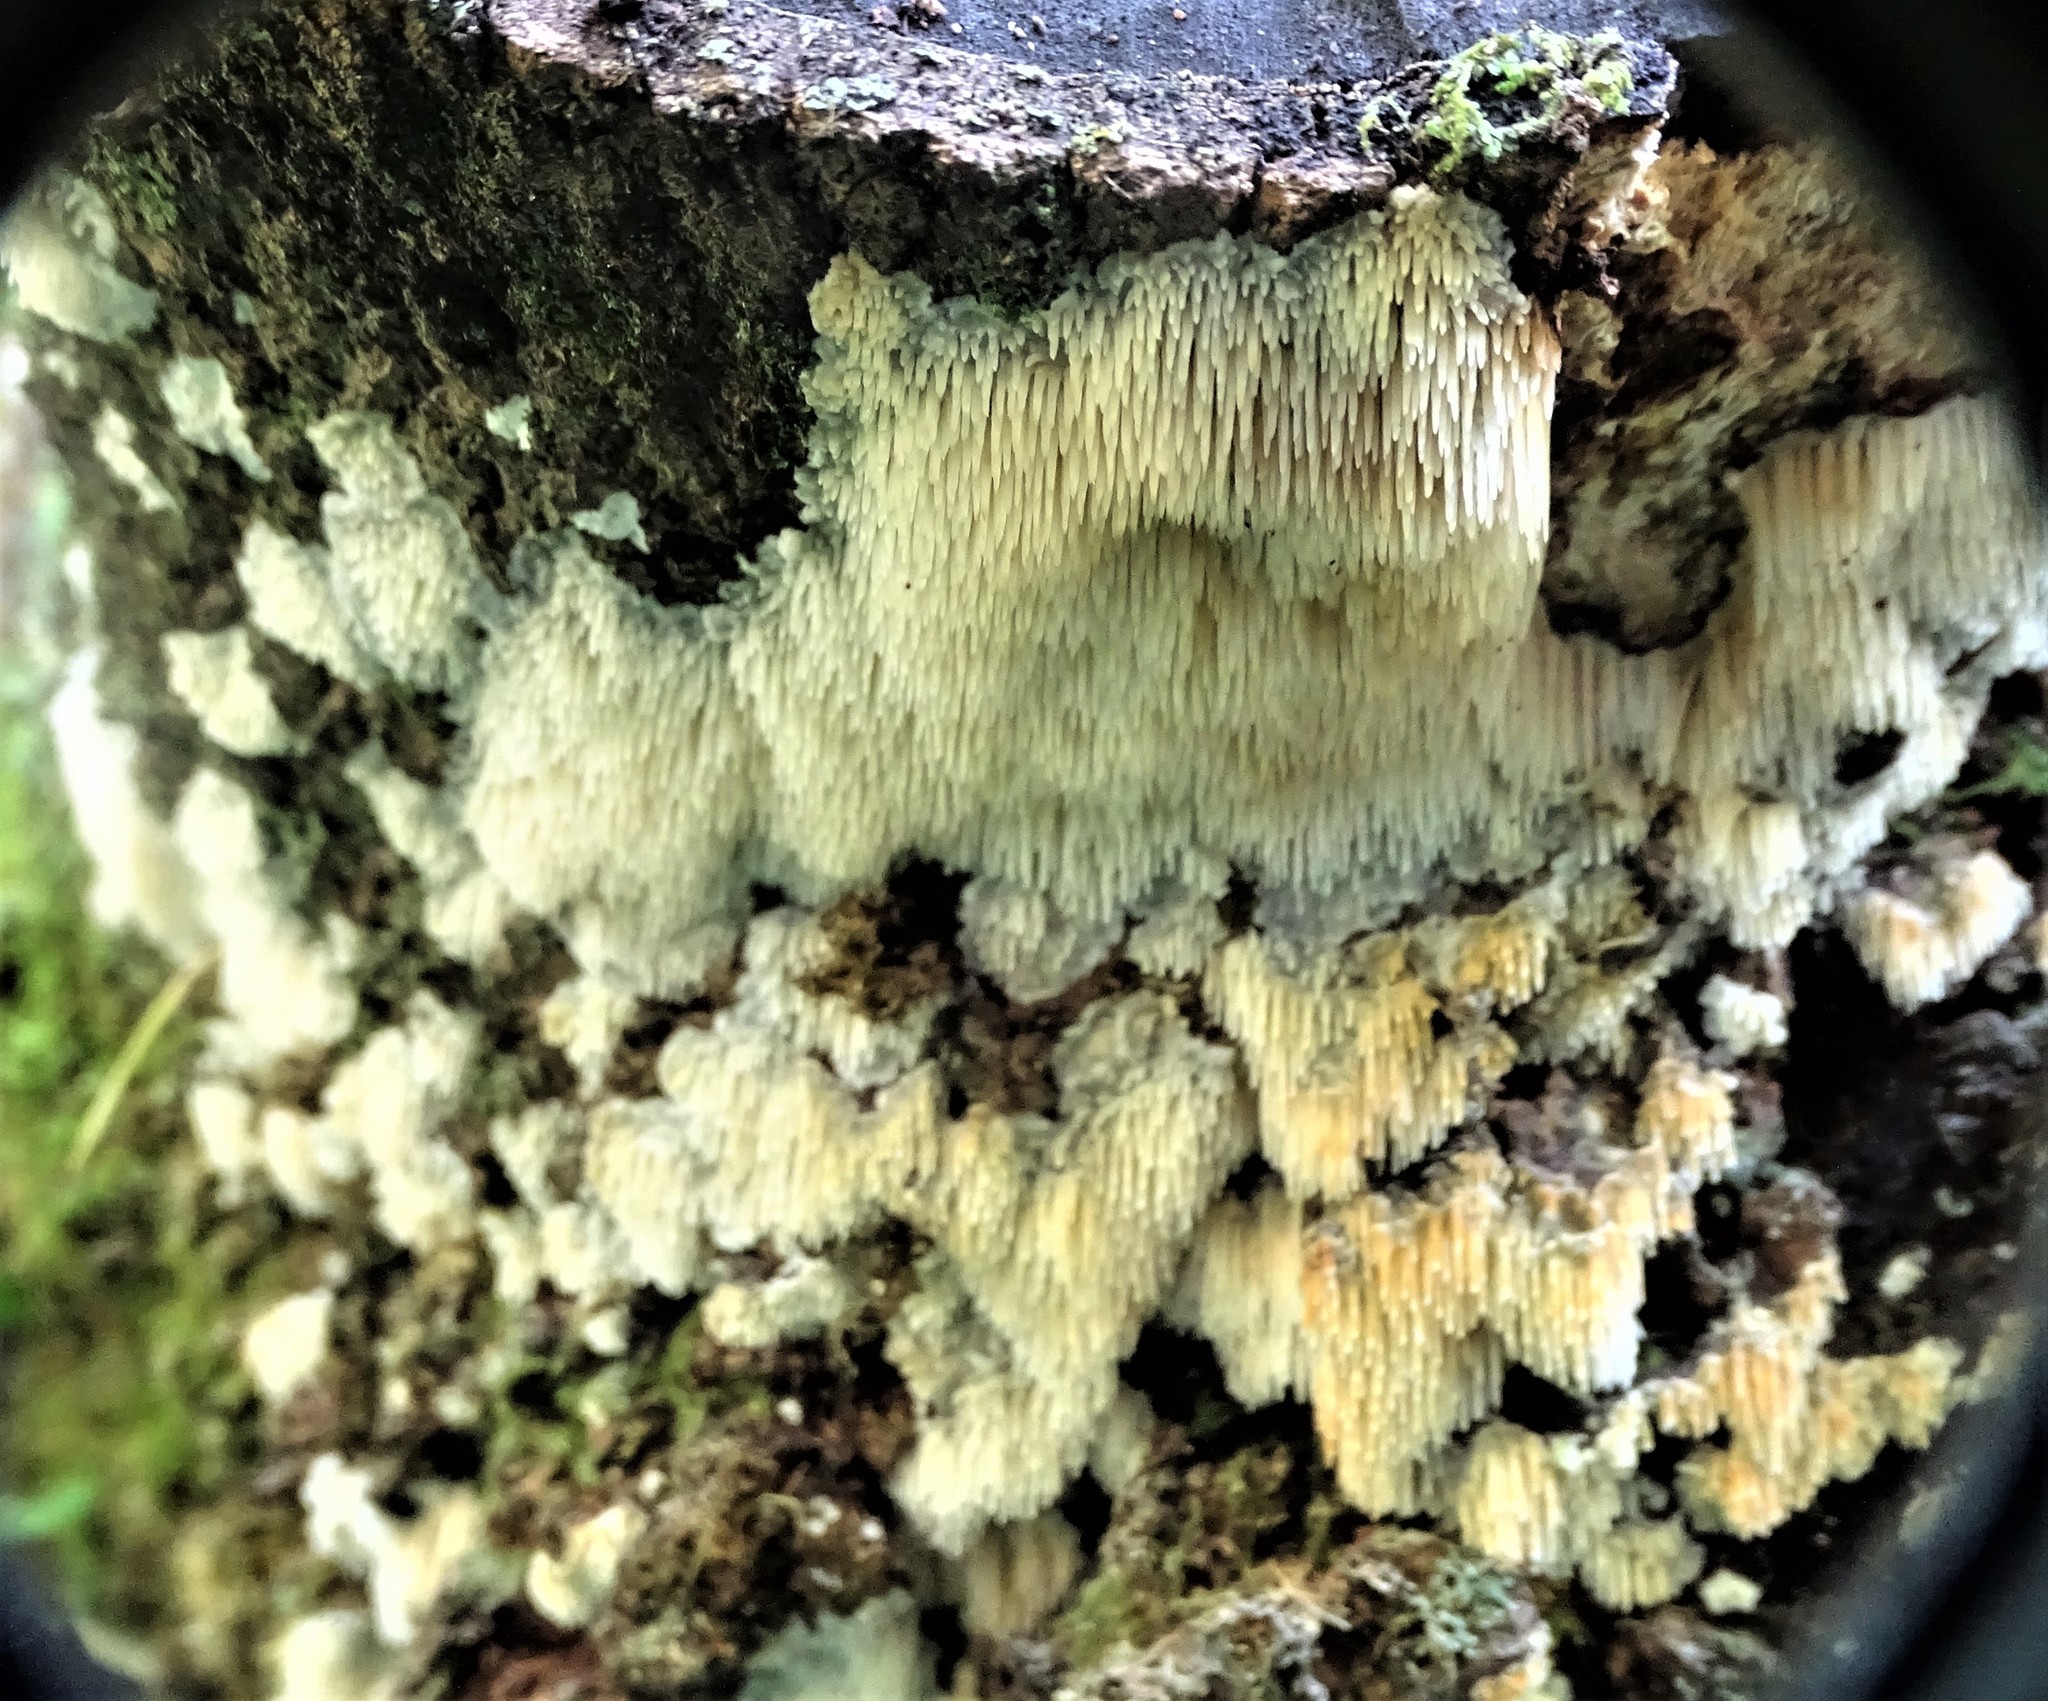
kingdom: Fungi
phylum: Basidiomycota
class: Agaricomycetes
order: Agaricales
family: Radulomycetaceae
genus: Radulomyces
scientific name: Radulomyces copelandii
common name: Asian beauty
